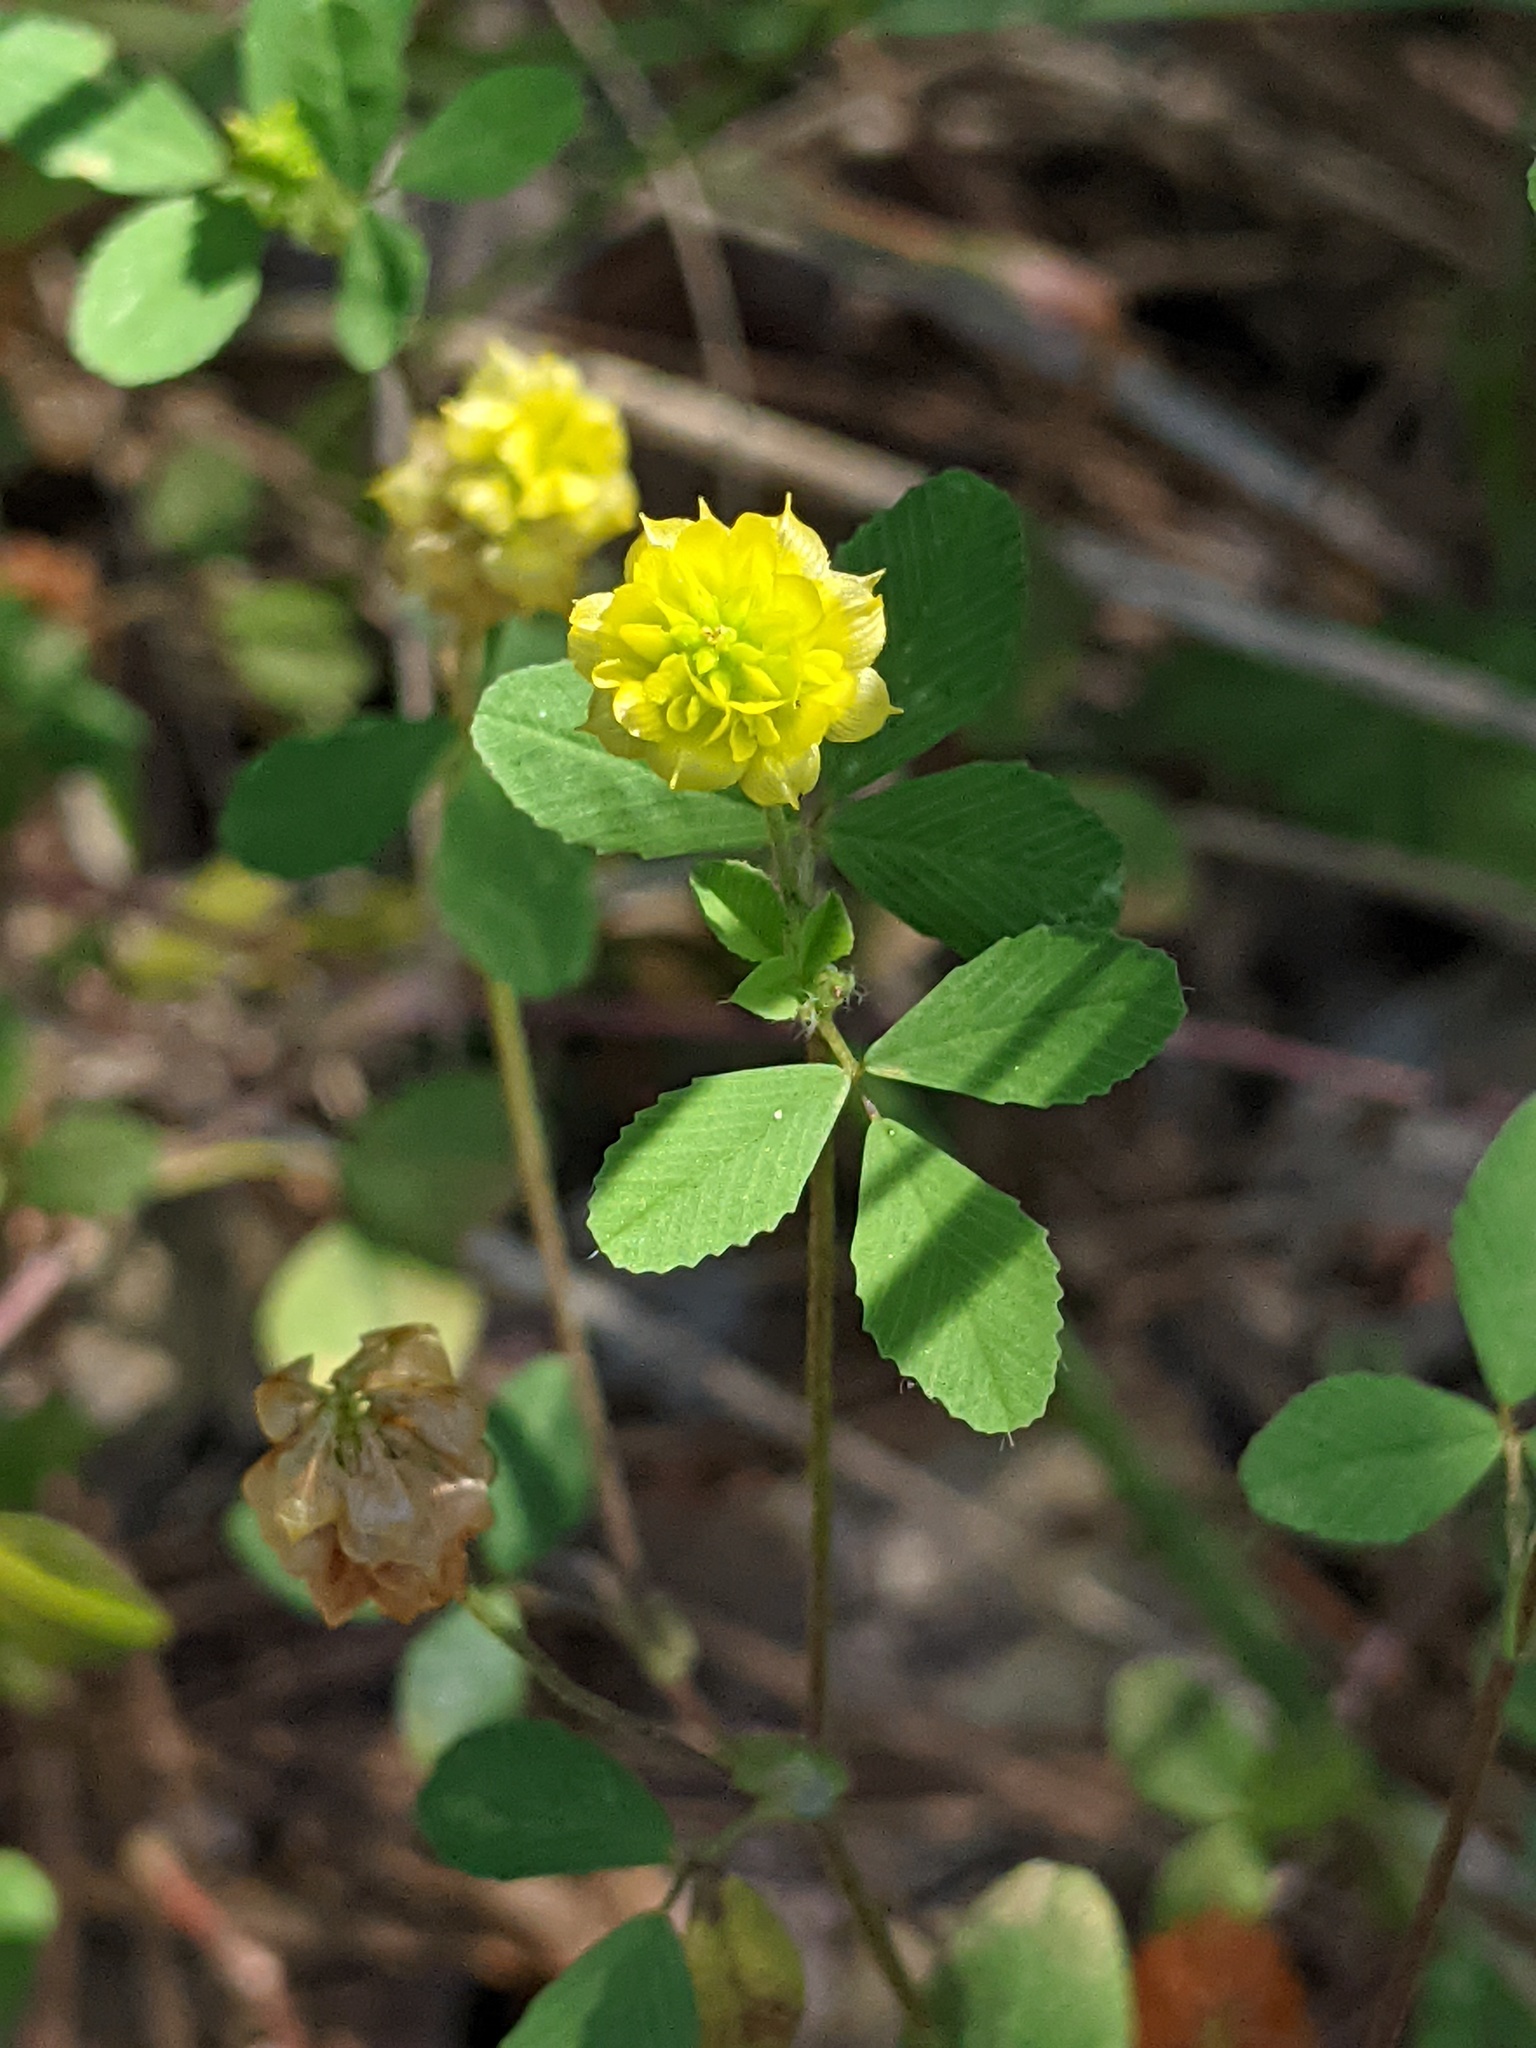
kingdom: Plantae
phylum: Tracheophyta
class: Magnoliopsida
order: Fabales
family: Fabaceae
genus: Trifolium
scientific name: Trifolium campestre
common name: Field clover
